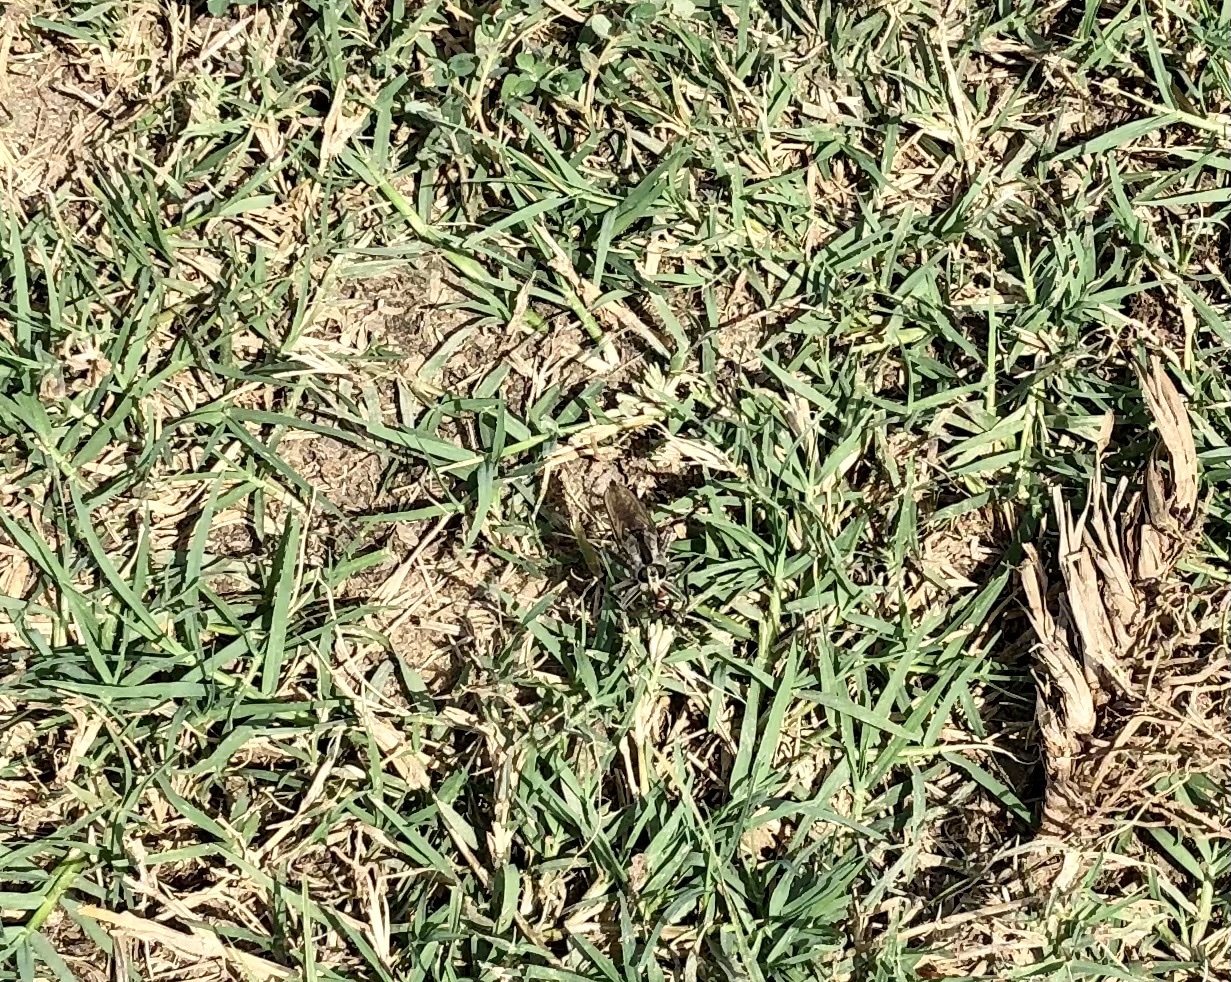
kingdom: Animalia
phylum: Arthropoda
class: Insecta
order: Diptera
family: Asilidae
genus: Triorla
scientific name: Triorla interrupta
